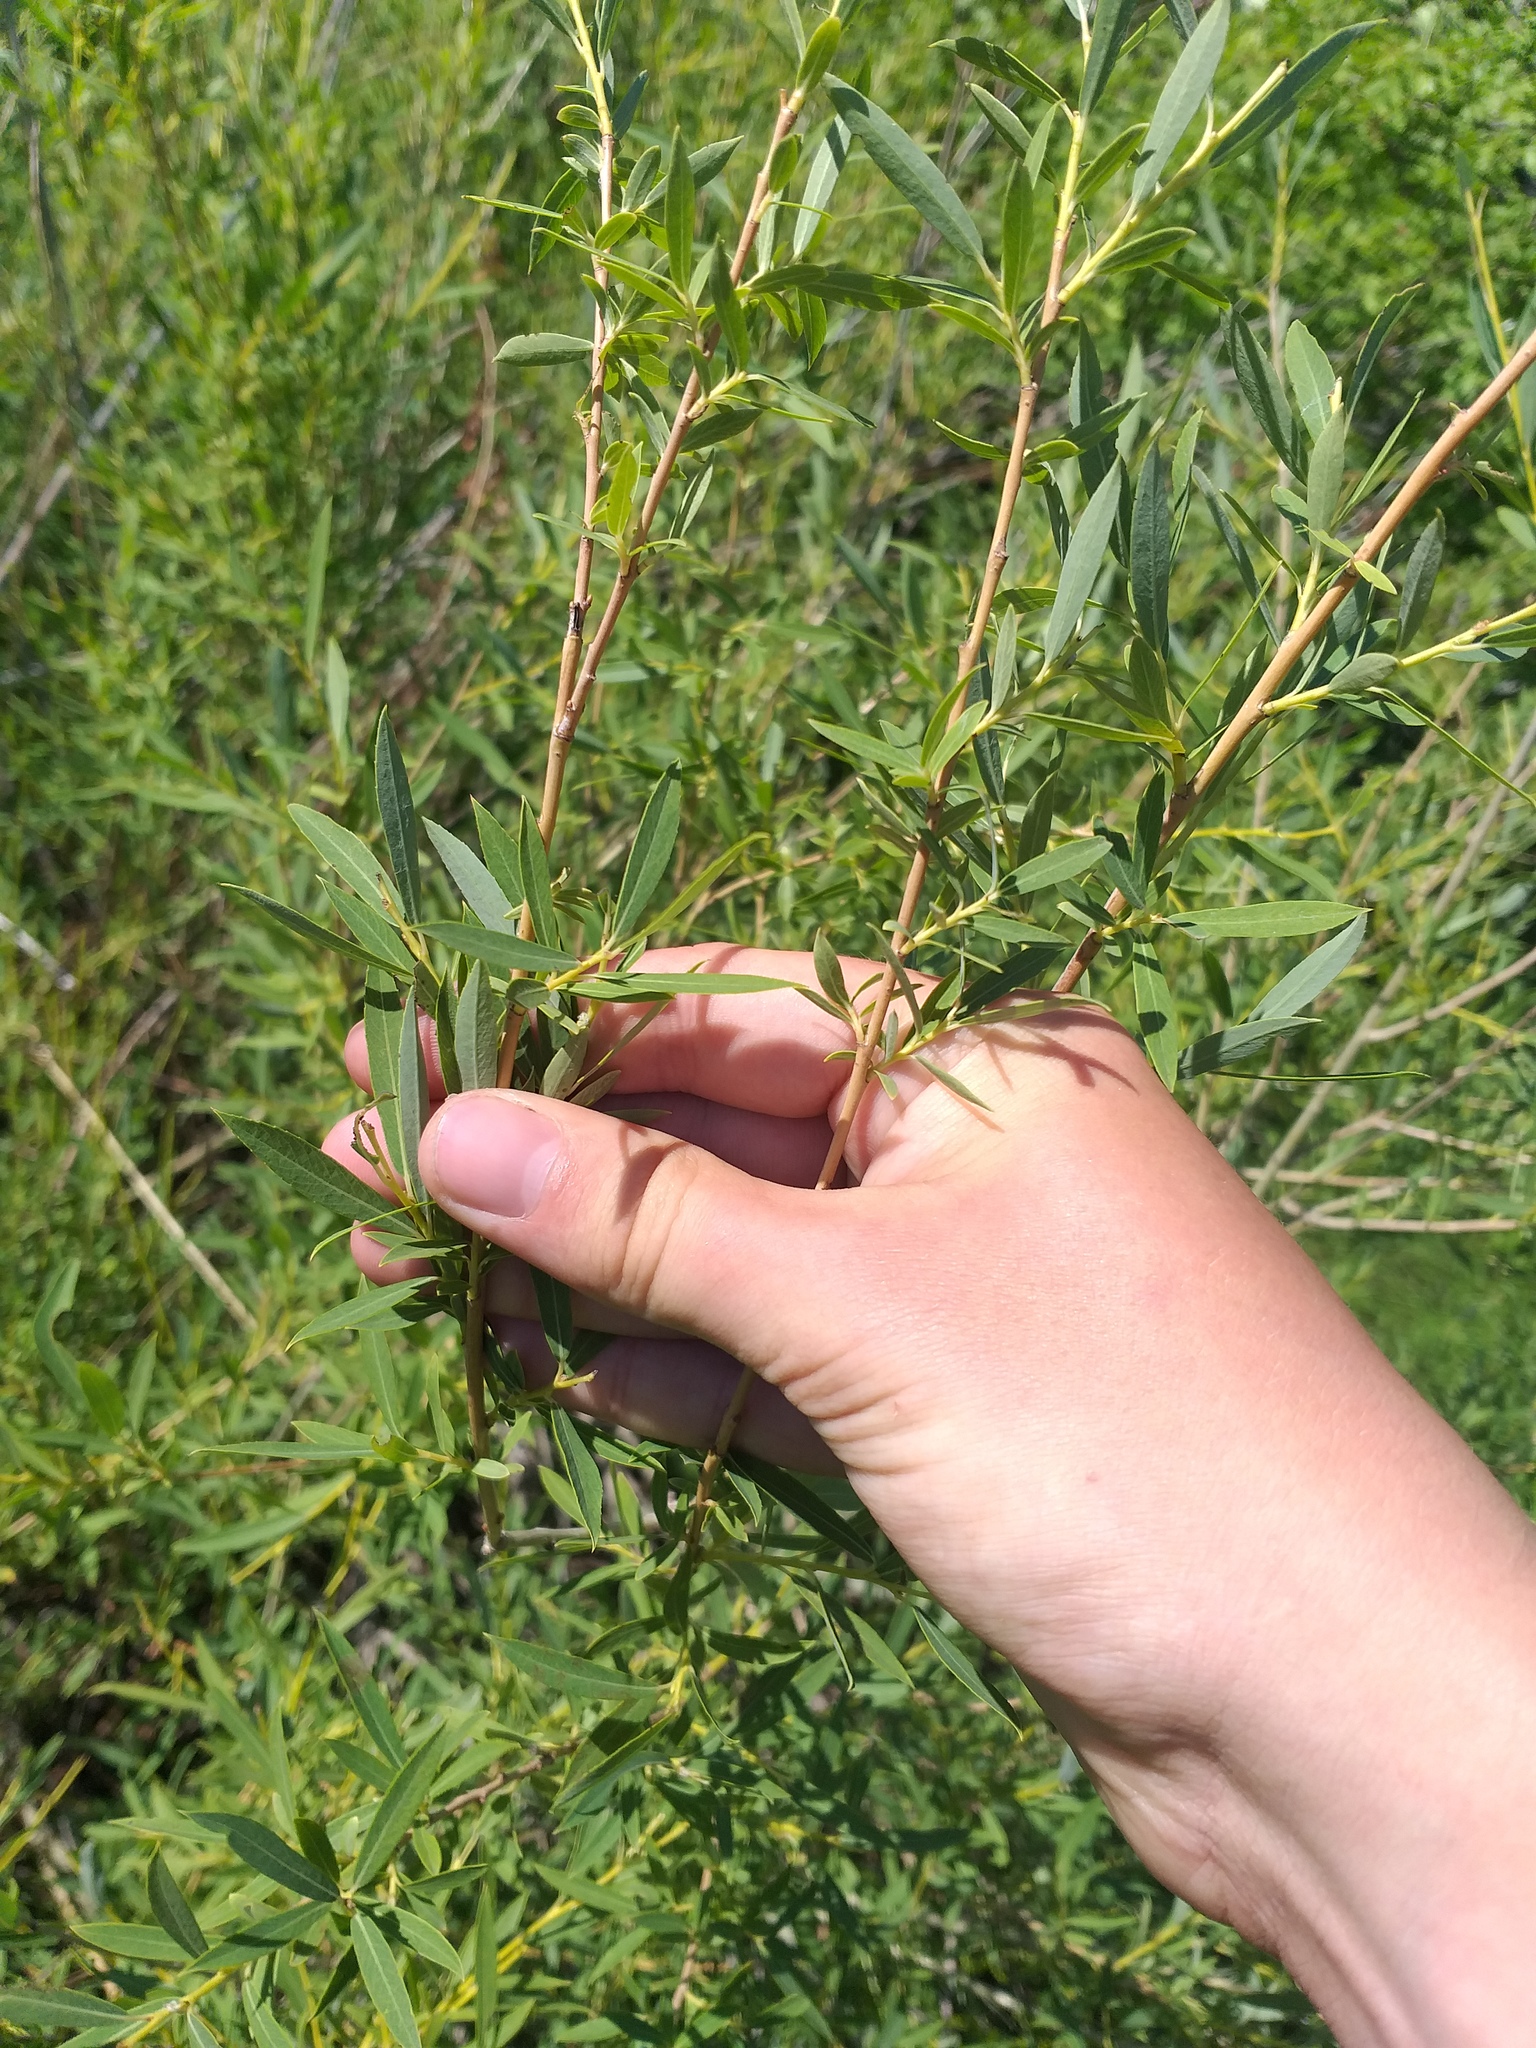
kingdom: Plantae
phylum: Tracheophyta
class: Magnoliopsida
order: Malpighiales
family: Salicaceae
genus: Salix
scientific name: Salix caspica
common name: Caspian willow
